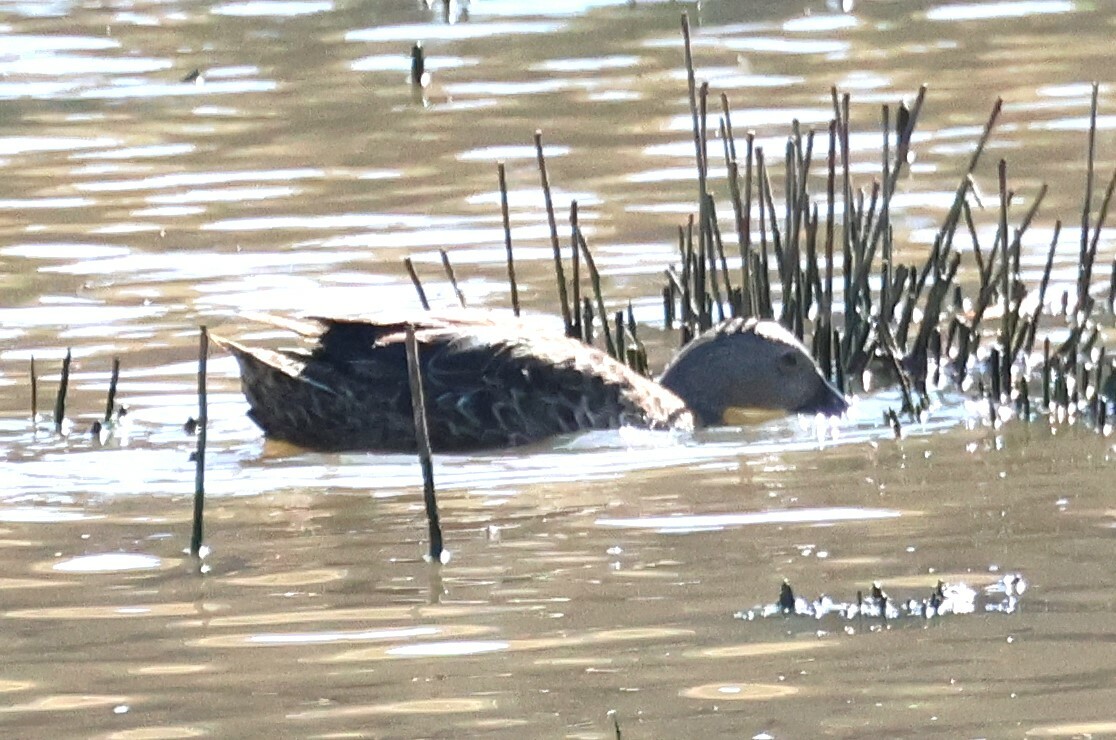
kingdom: Animalia
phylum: Chordata
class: Aves
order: Anseriformes
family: Anatidae
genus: Spatula
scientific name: Spatula smithii
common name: Cape shoveler
